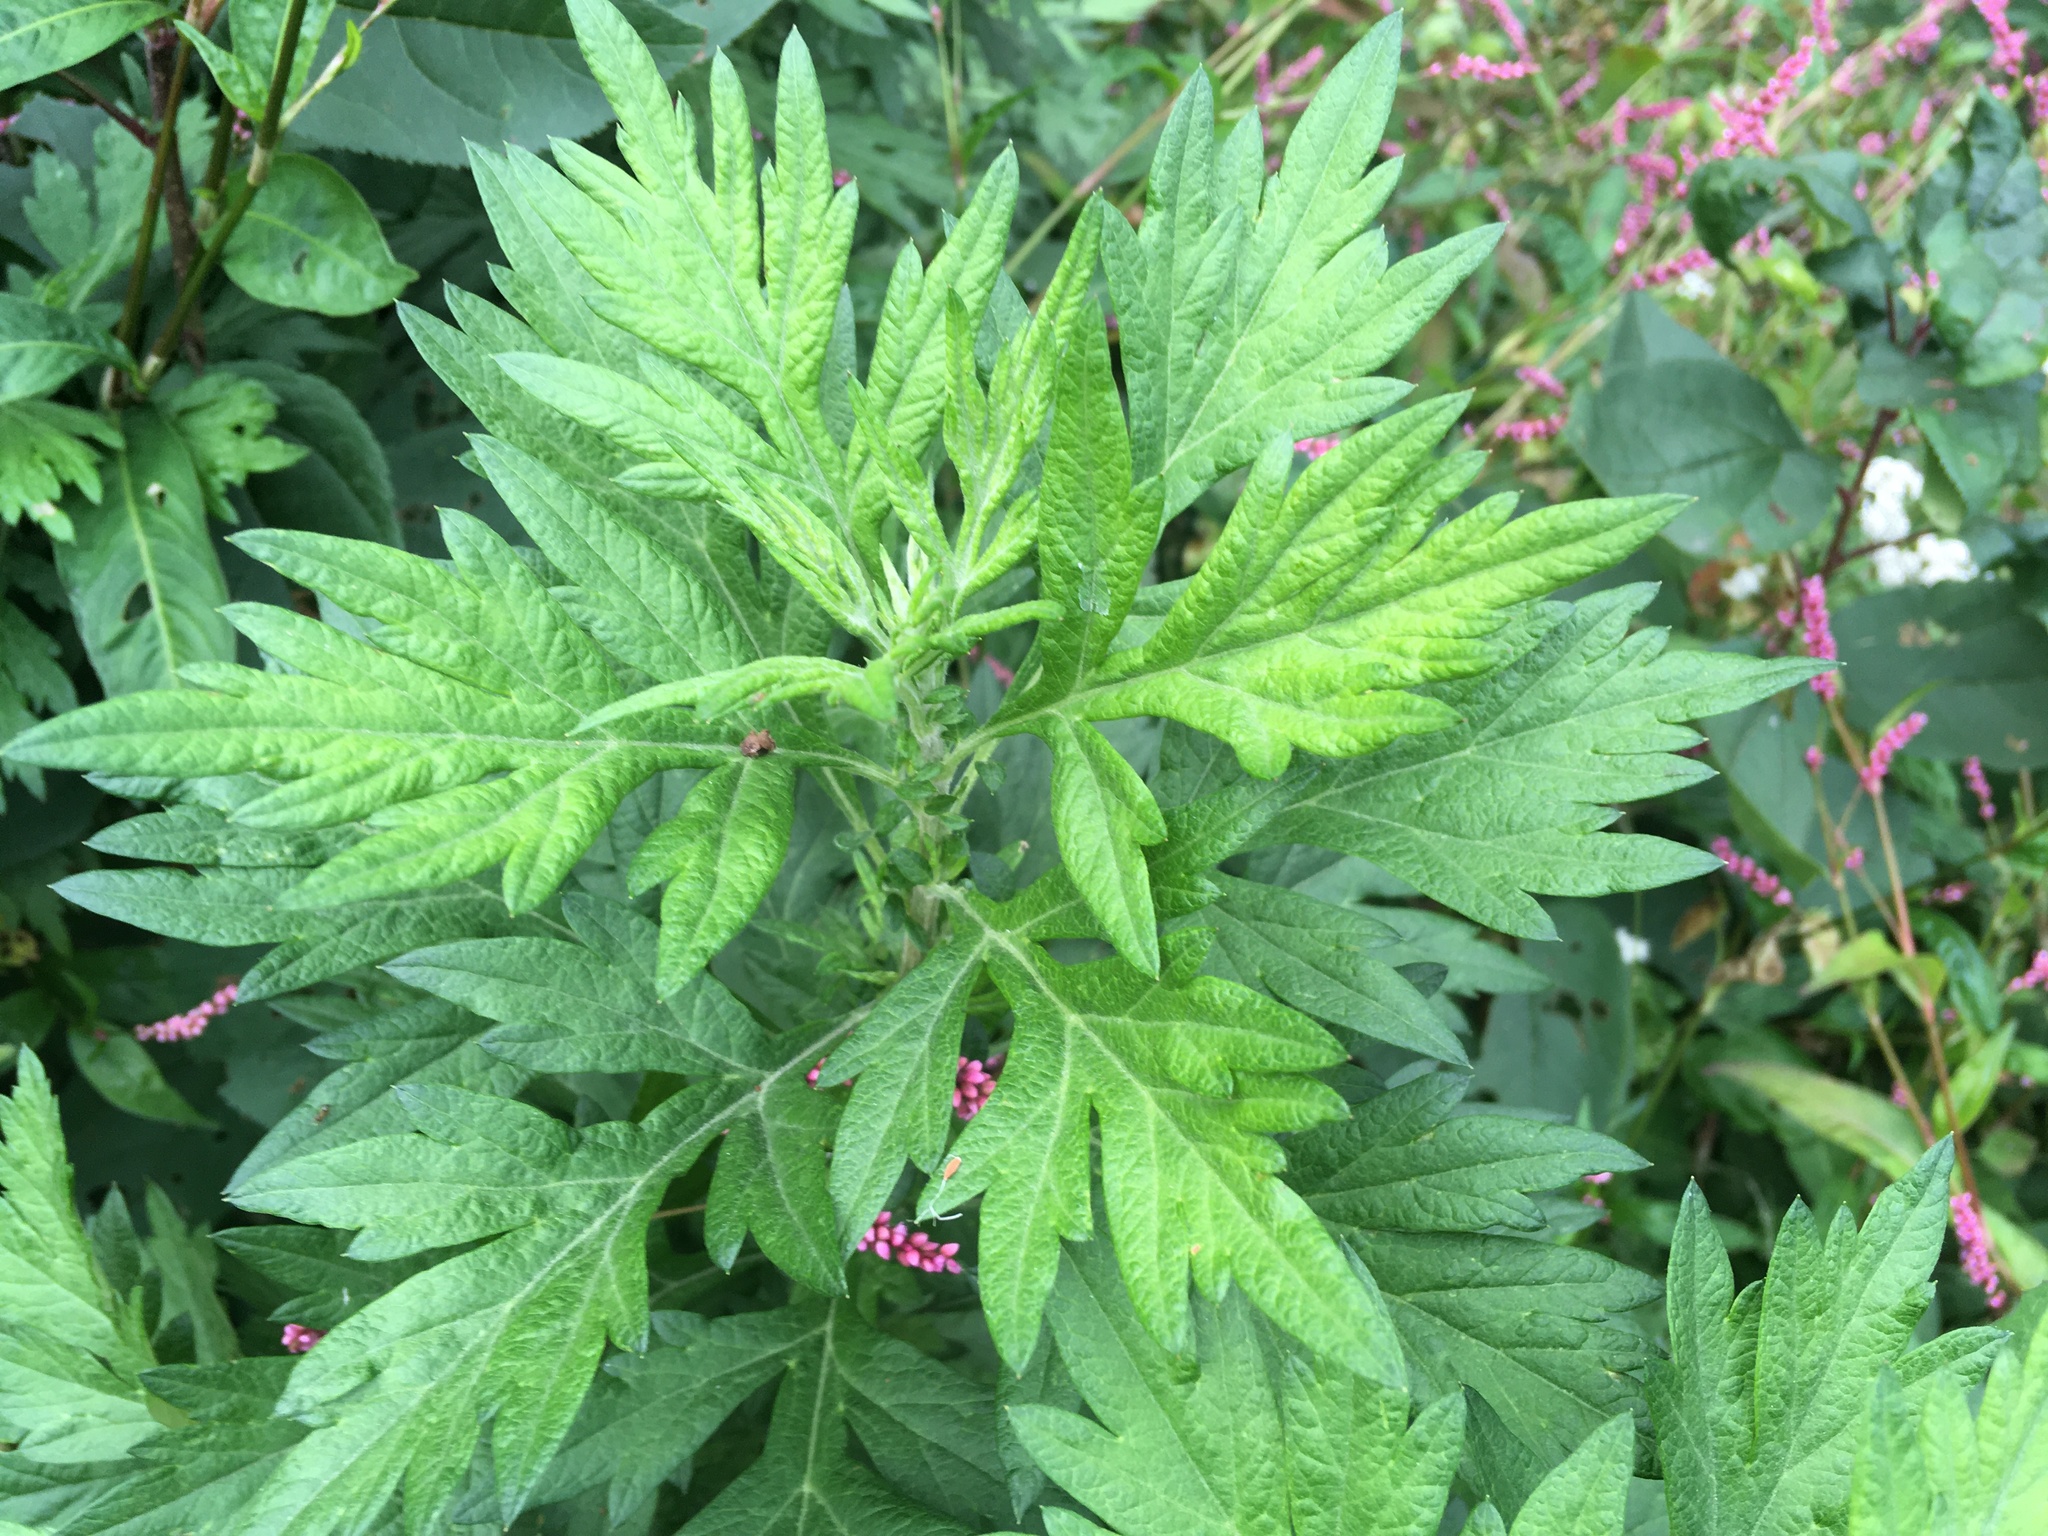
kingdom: Plantae
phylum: Tracheophyta
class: Magnoliopsida
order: Asterales
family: Asteraceae
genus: Artemisia
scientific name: Artemisia vulgaris
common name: Mugwort
